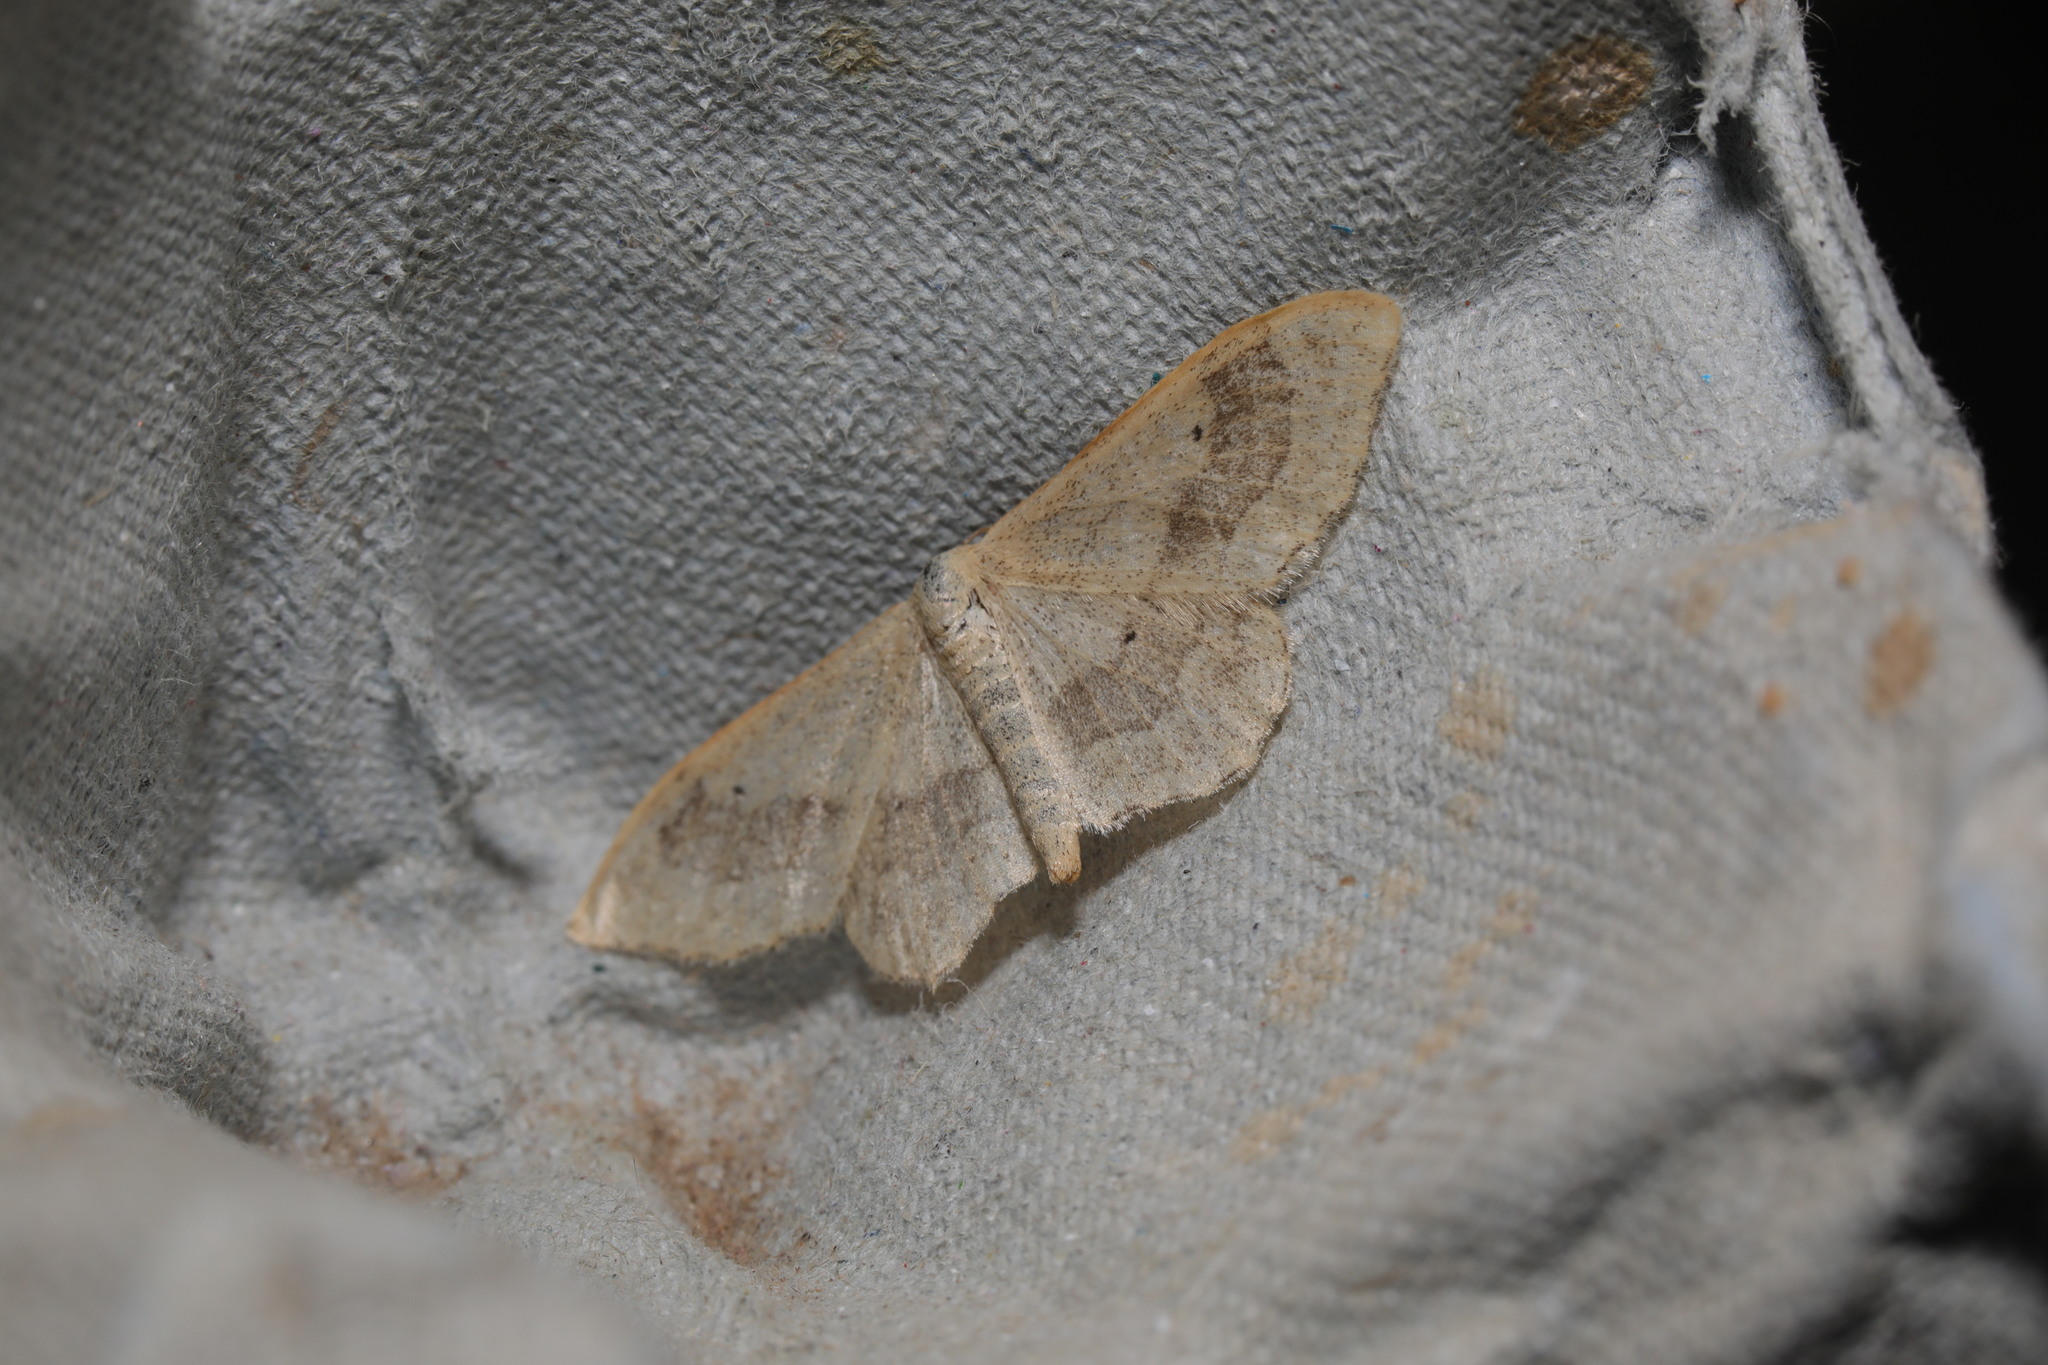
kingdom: Animalia
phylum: Arthropoda
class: Insecta
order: Lepidoptera
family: Geometridae
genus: Idaea
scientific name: Idaea aversata
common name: Riband wave
